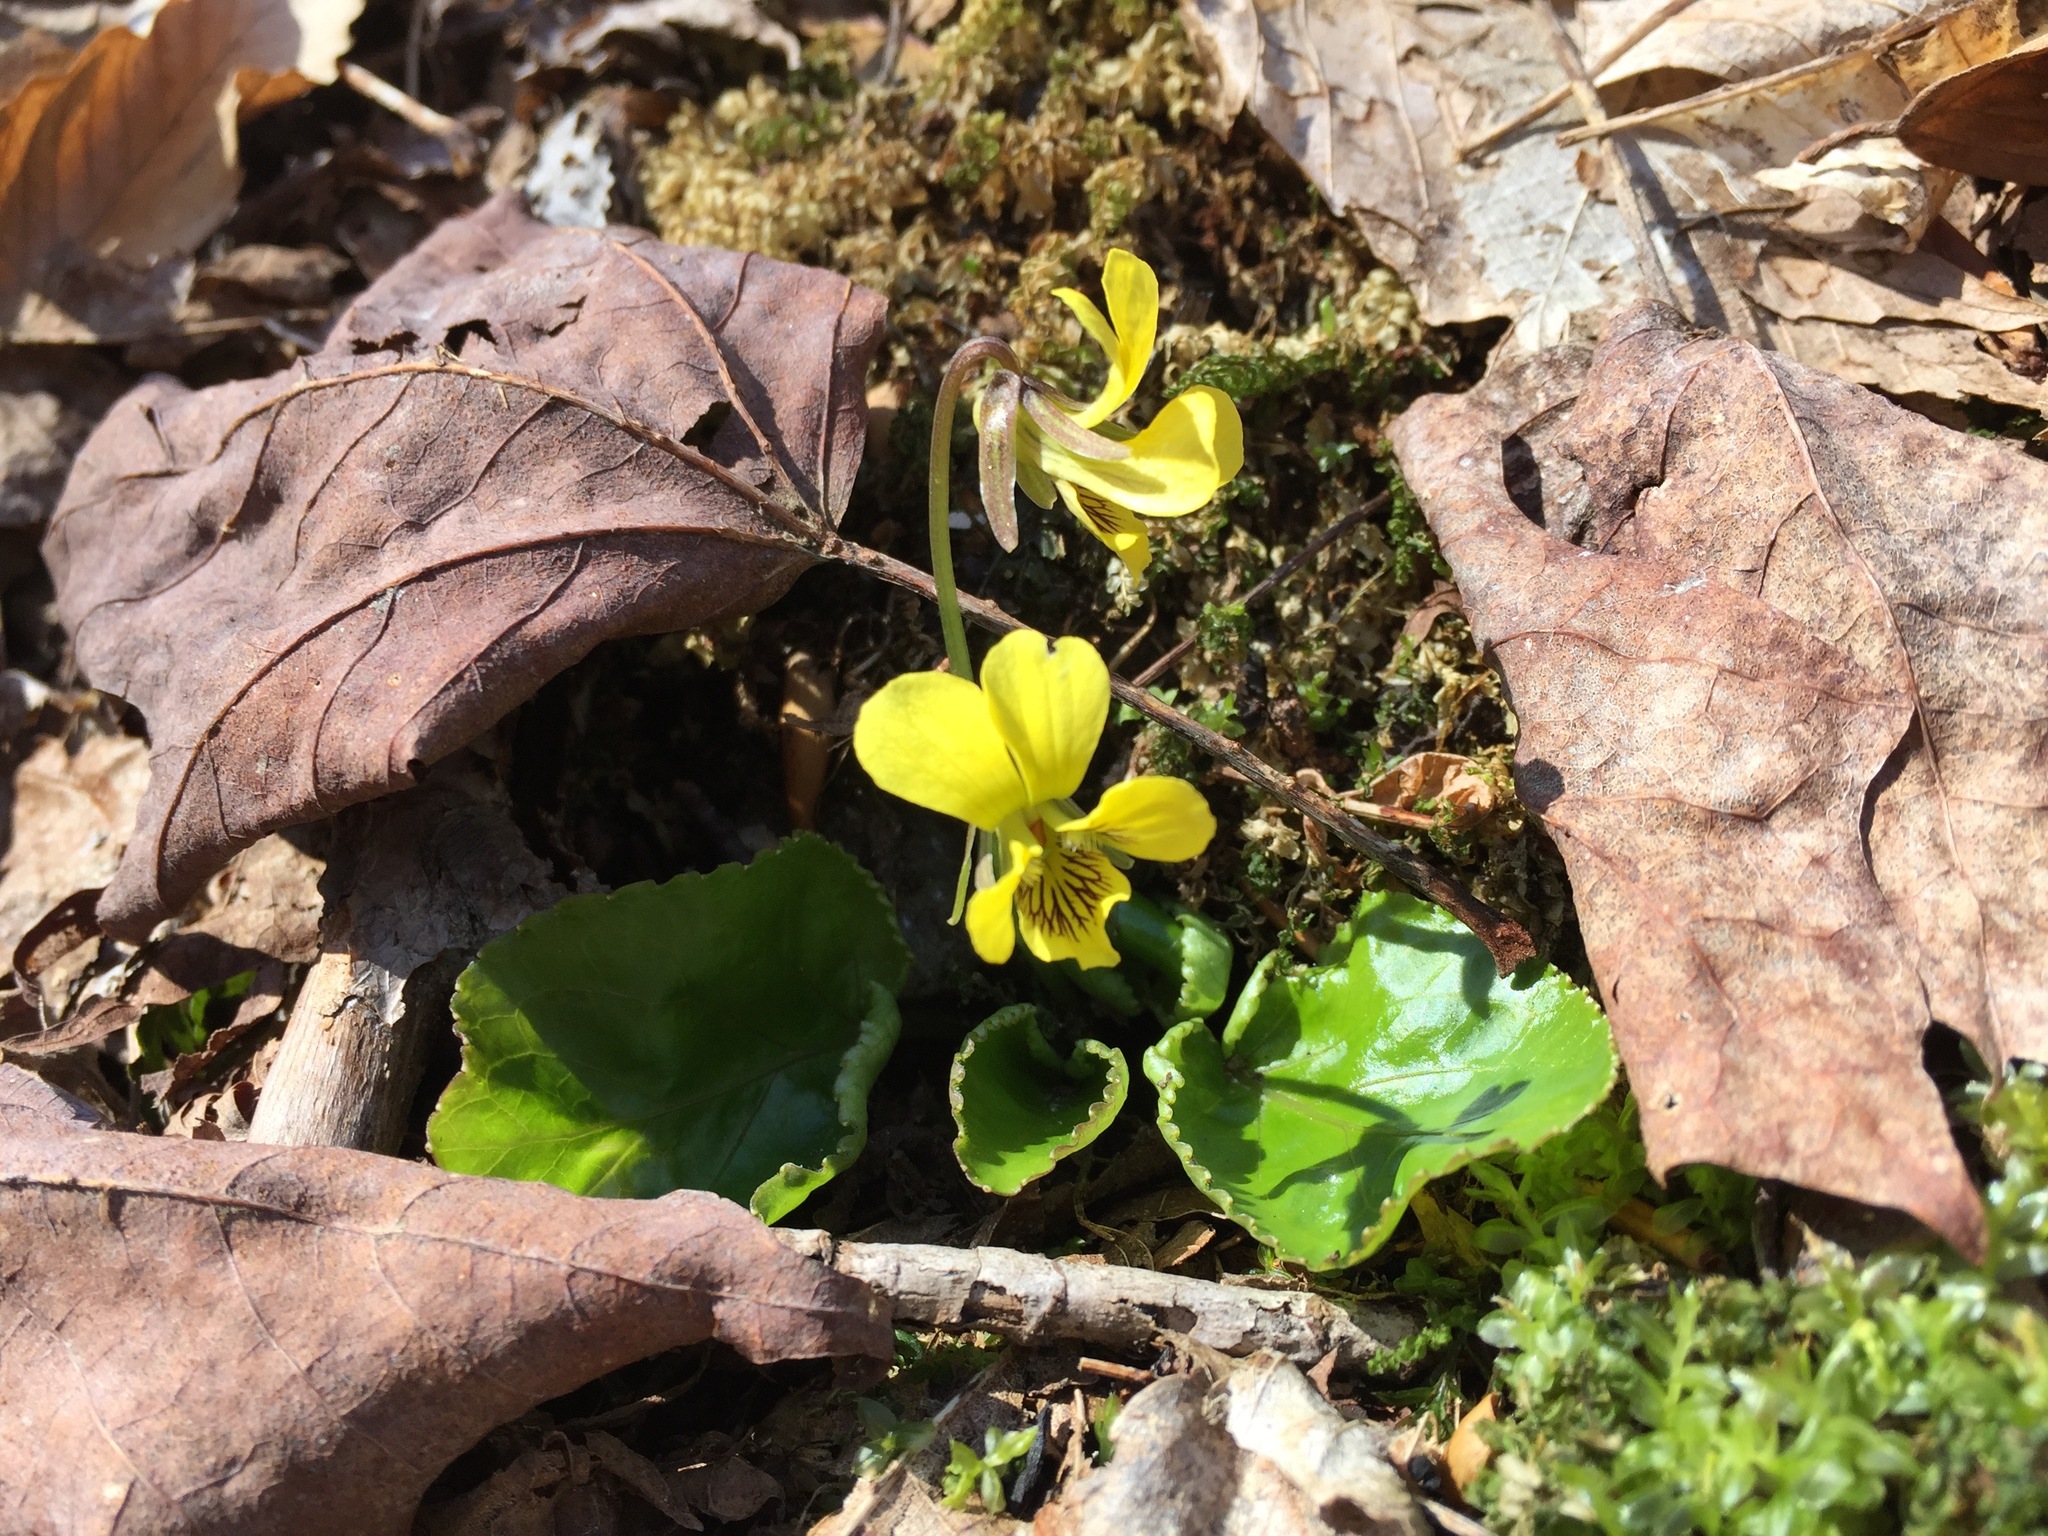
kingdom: Plantae
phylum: Tracheophyta
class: Magnoliopsida
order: Malpighiales
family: Violaceae
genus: Viola
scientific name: Viola rotundifolia
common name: Early yellow violet
